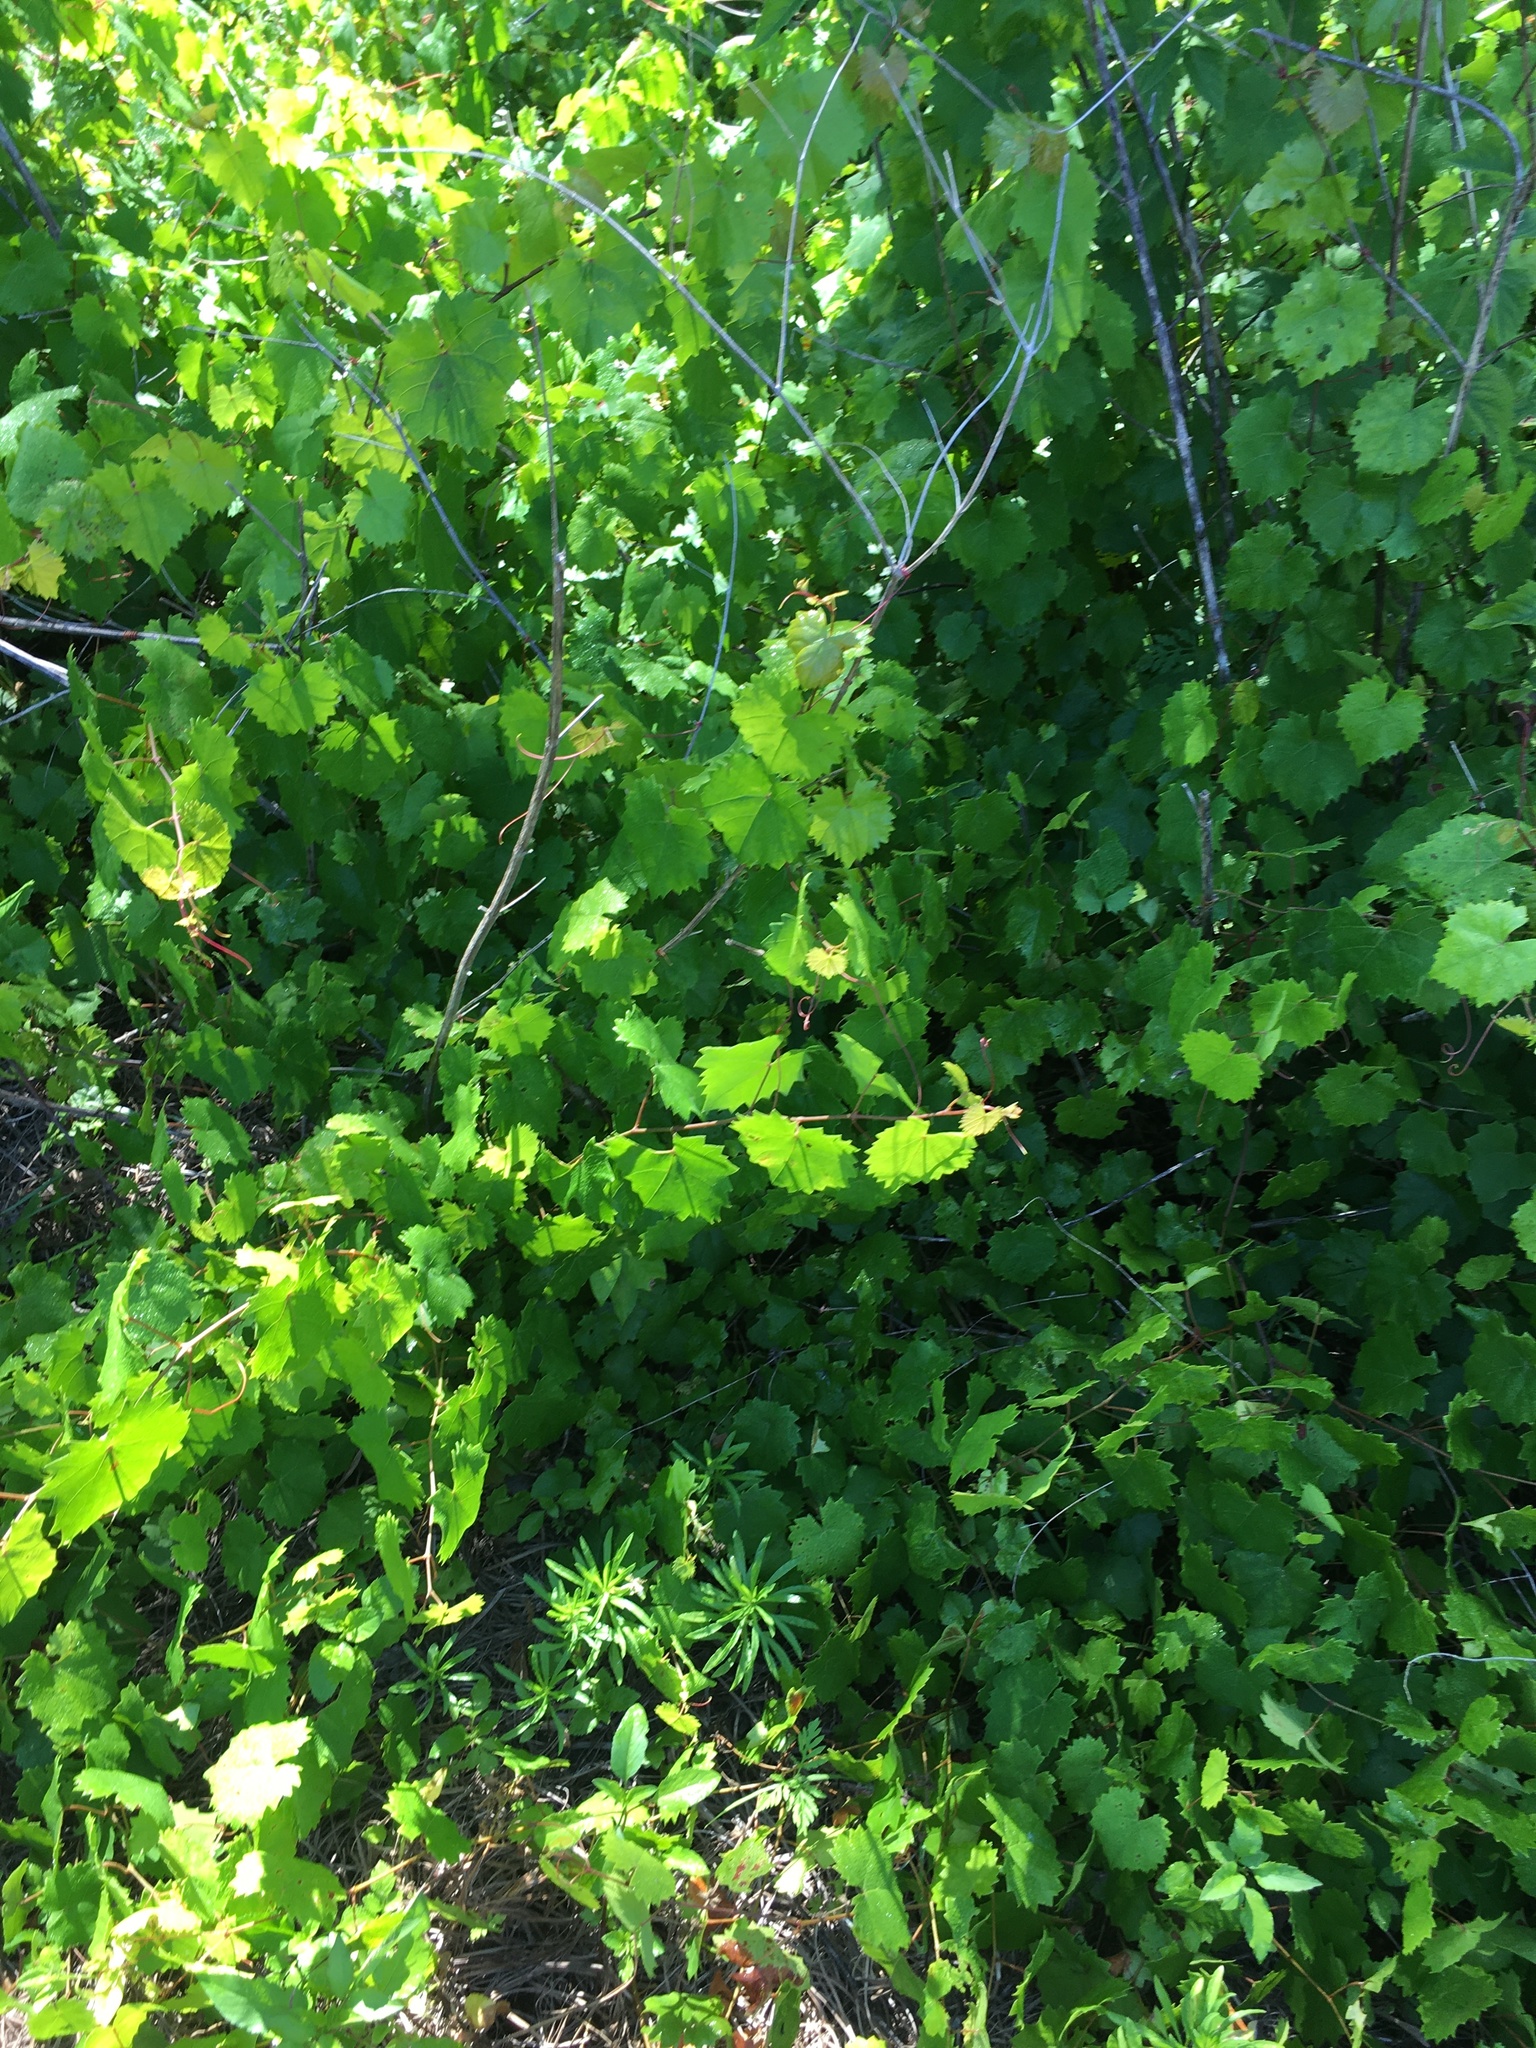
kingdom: Plantae
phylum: Tracheophyta
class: Magnoliopsida
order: Vitales
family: Vitaceae
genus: Vitis
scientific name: Vitis rotundifolia
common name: Muscadine grape
